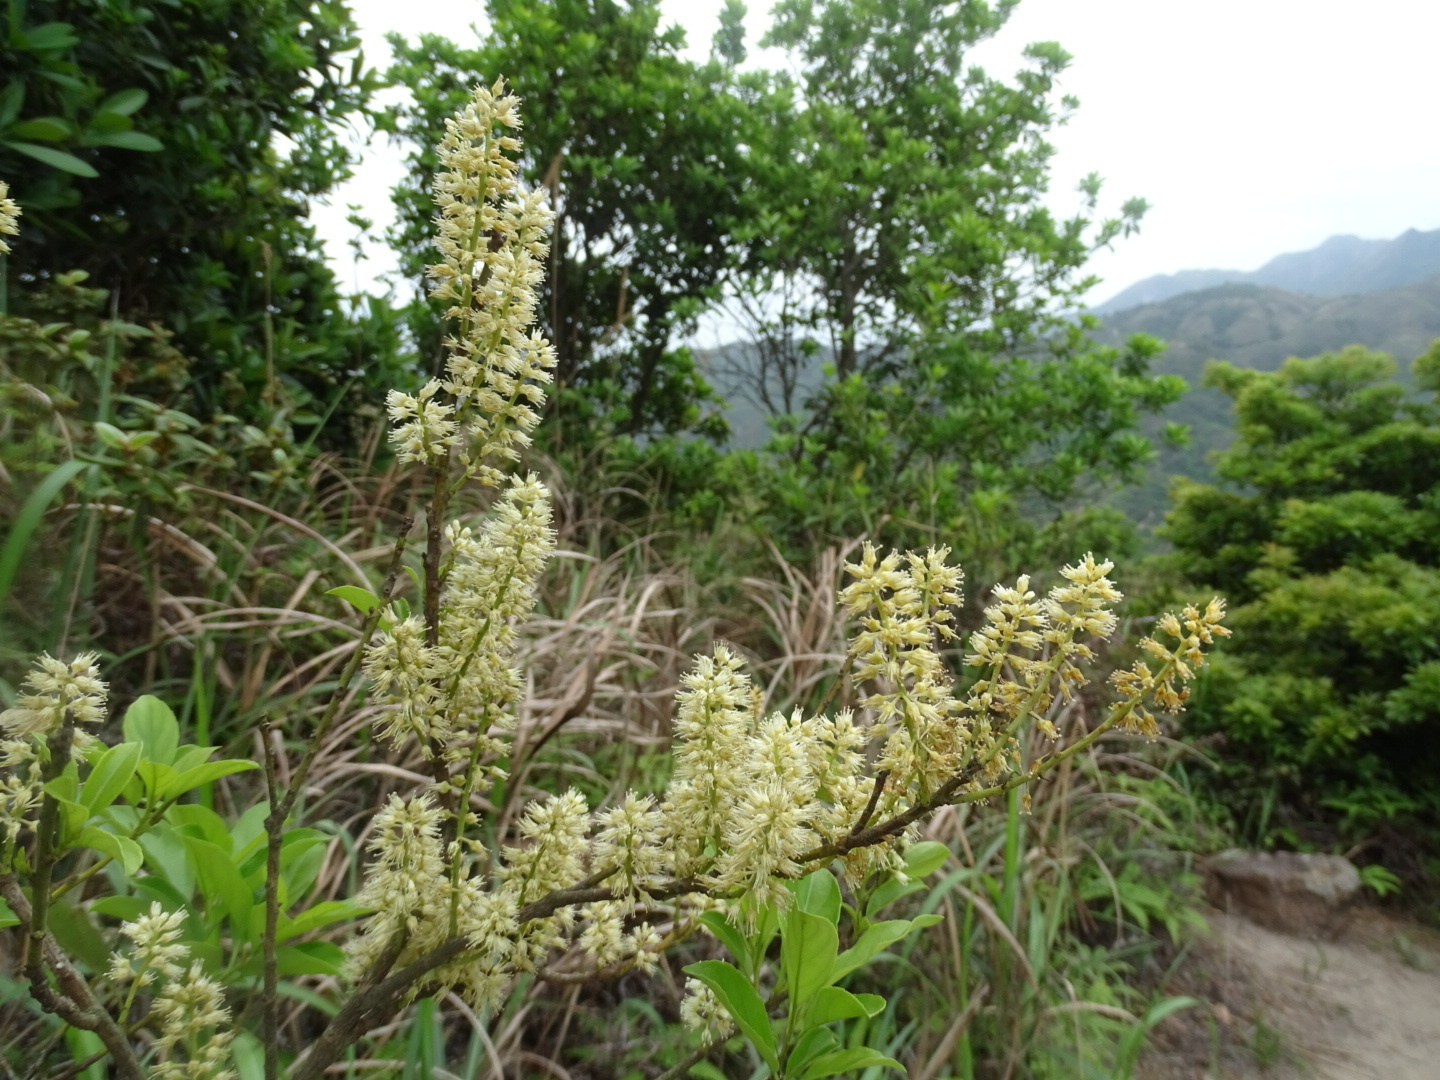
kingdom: Plantae
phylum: Tracheophyta
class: Magnoliopsida
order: Saxifragales
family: Iteaceae
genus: Itea
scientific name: Itea chinensis
